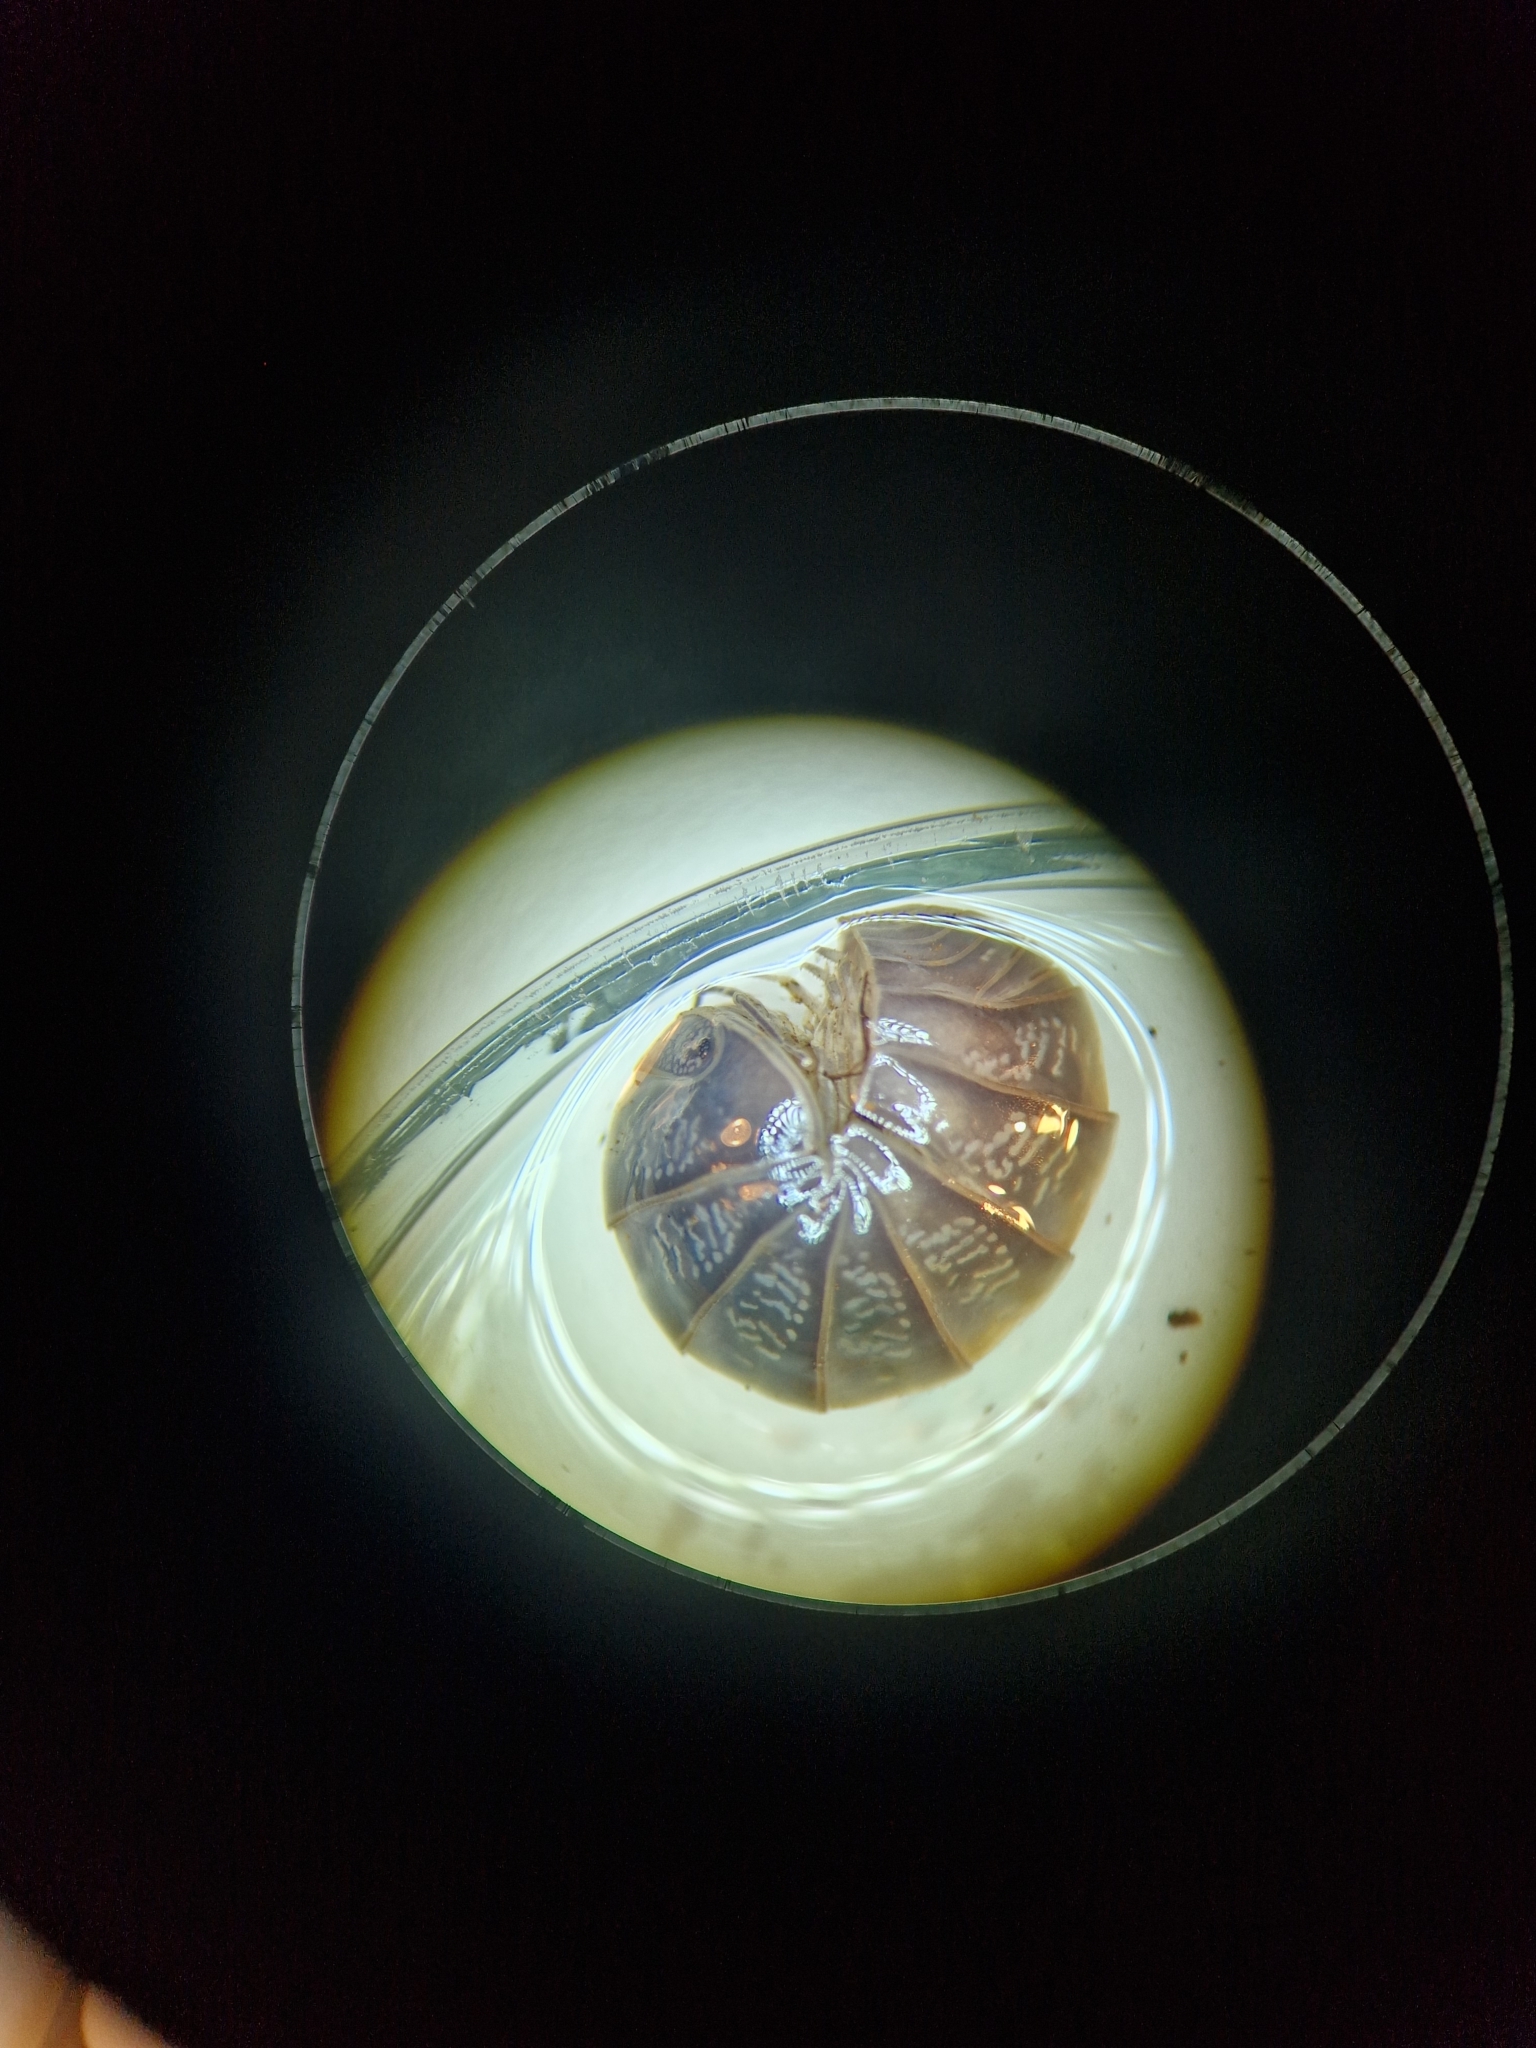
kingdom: Animalia
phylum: Arthropoda
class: Malacostraca
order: Isopoda
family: Armadillidae
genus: Armadillo
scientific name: Armadillo officinalis
